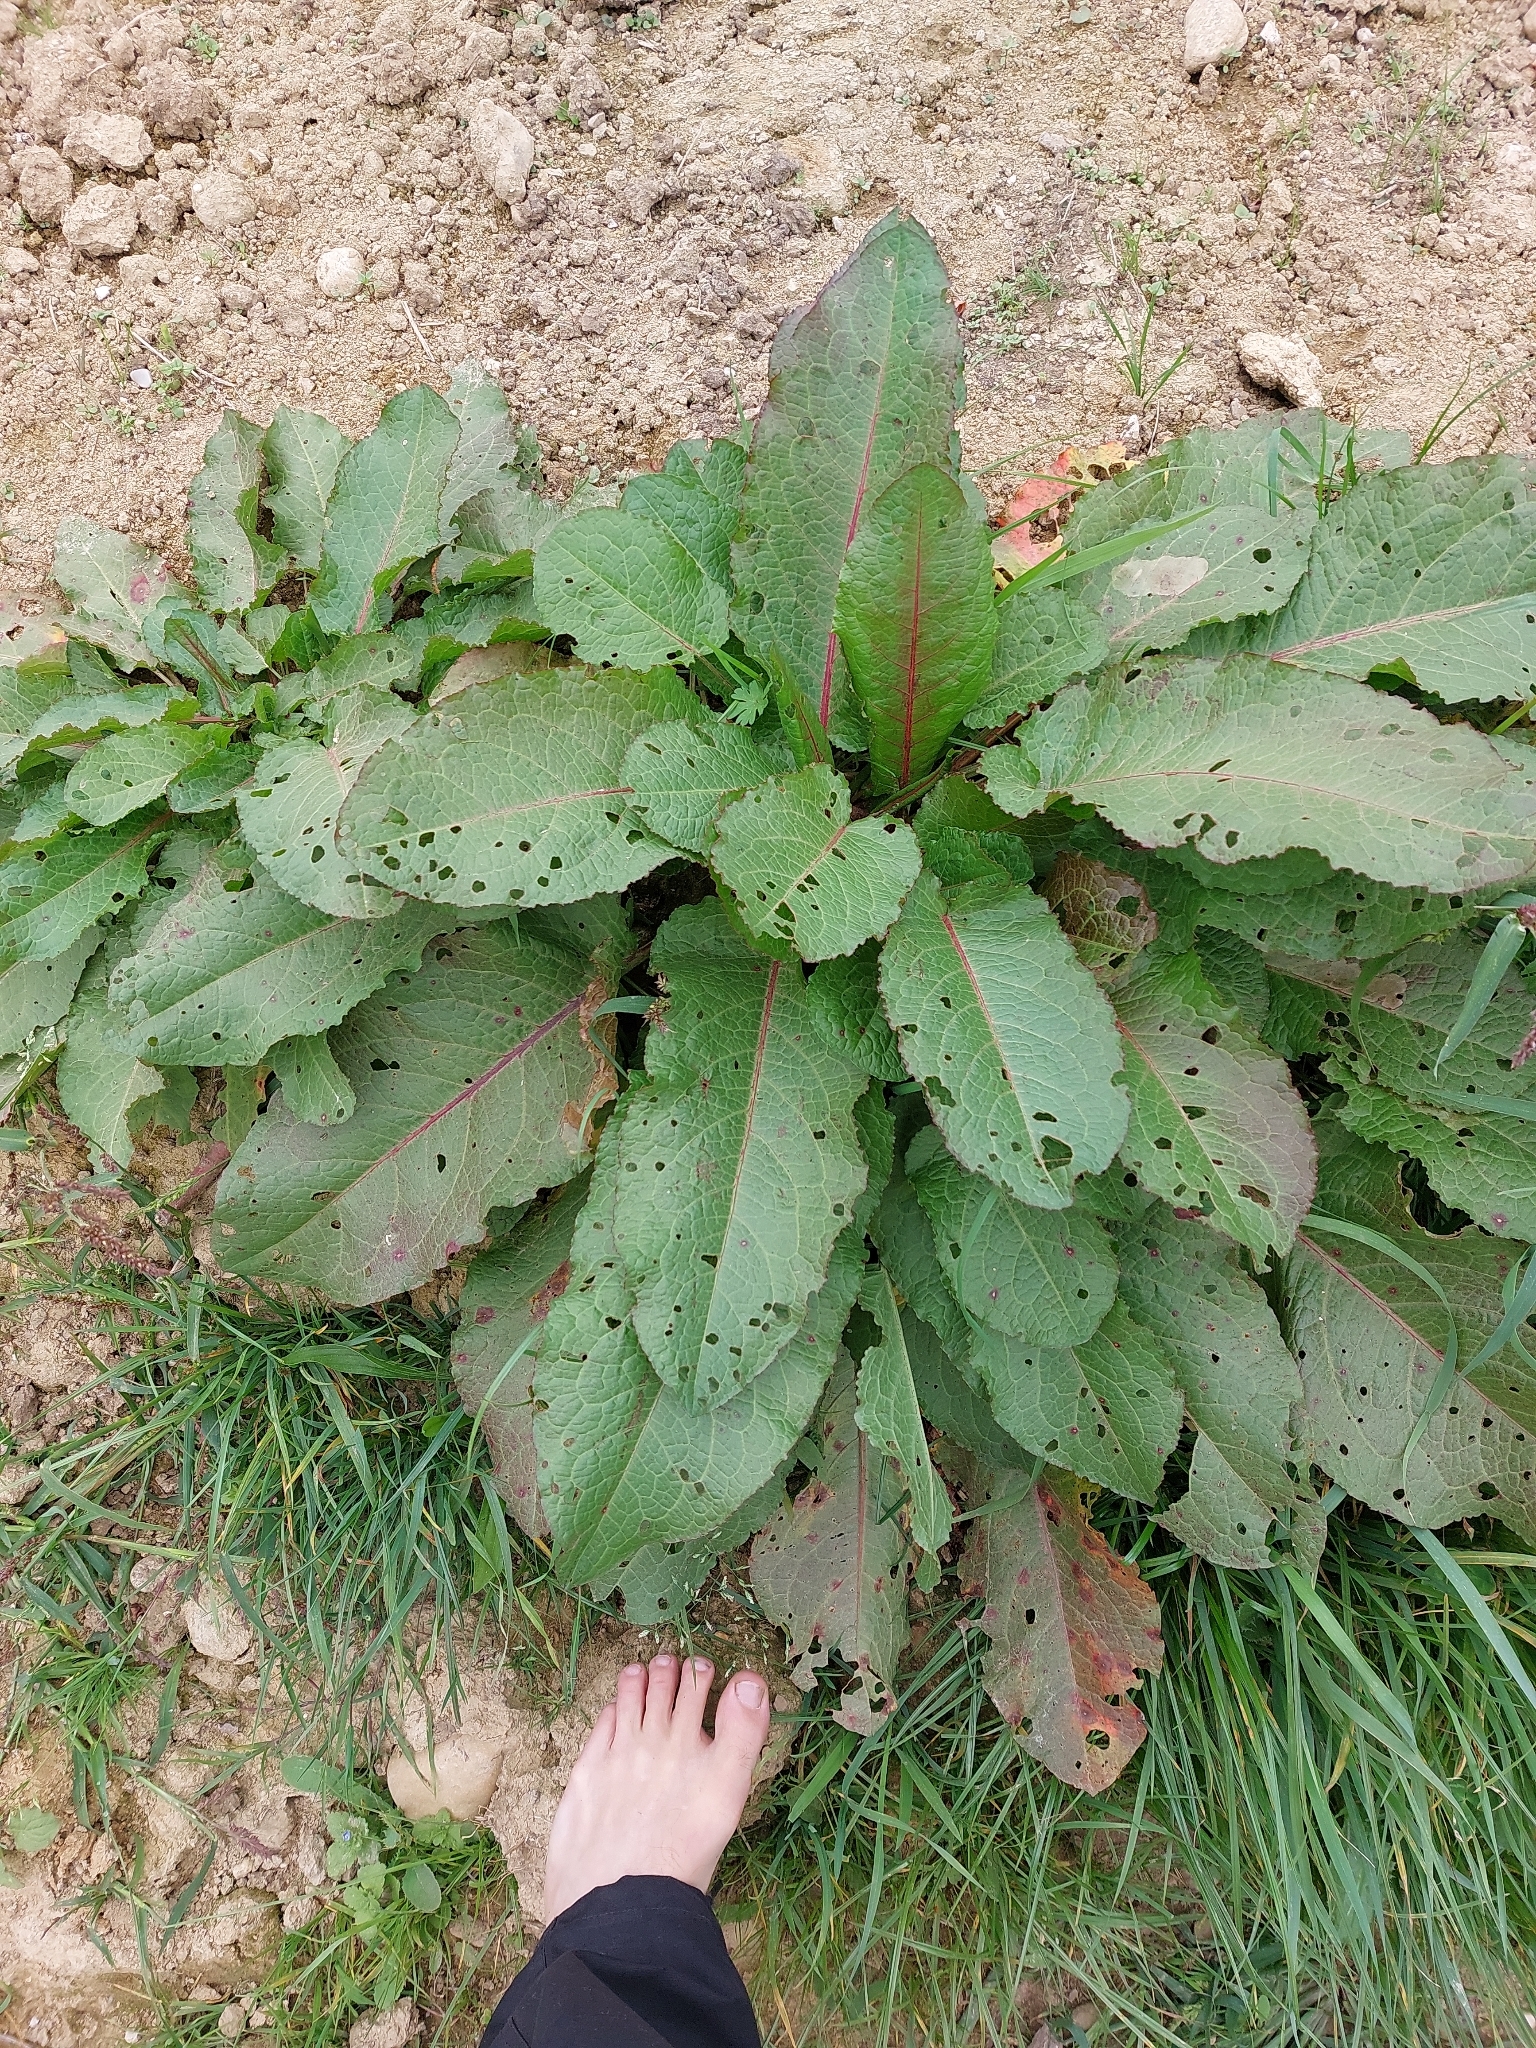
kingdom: Plantae
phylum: Tracheophyta
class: Magnoliopsida
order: Caryophyllales
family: Polygonaceae
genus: Rumex
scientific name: Rumex obtusifolius
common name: Bitter dock
